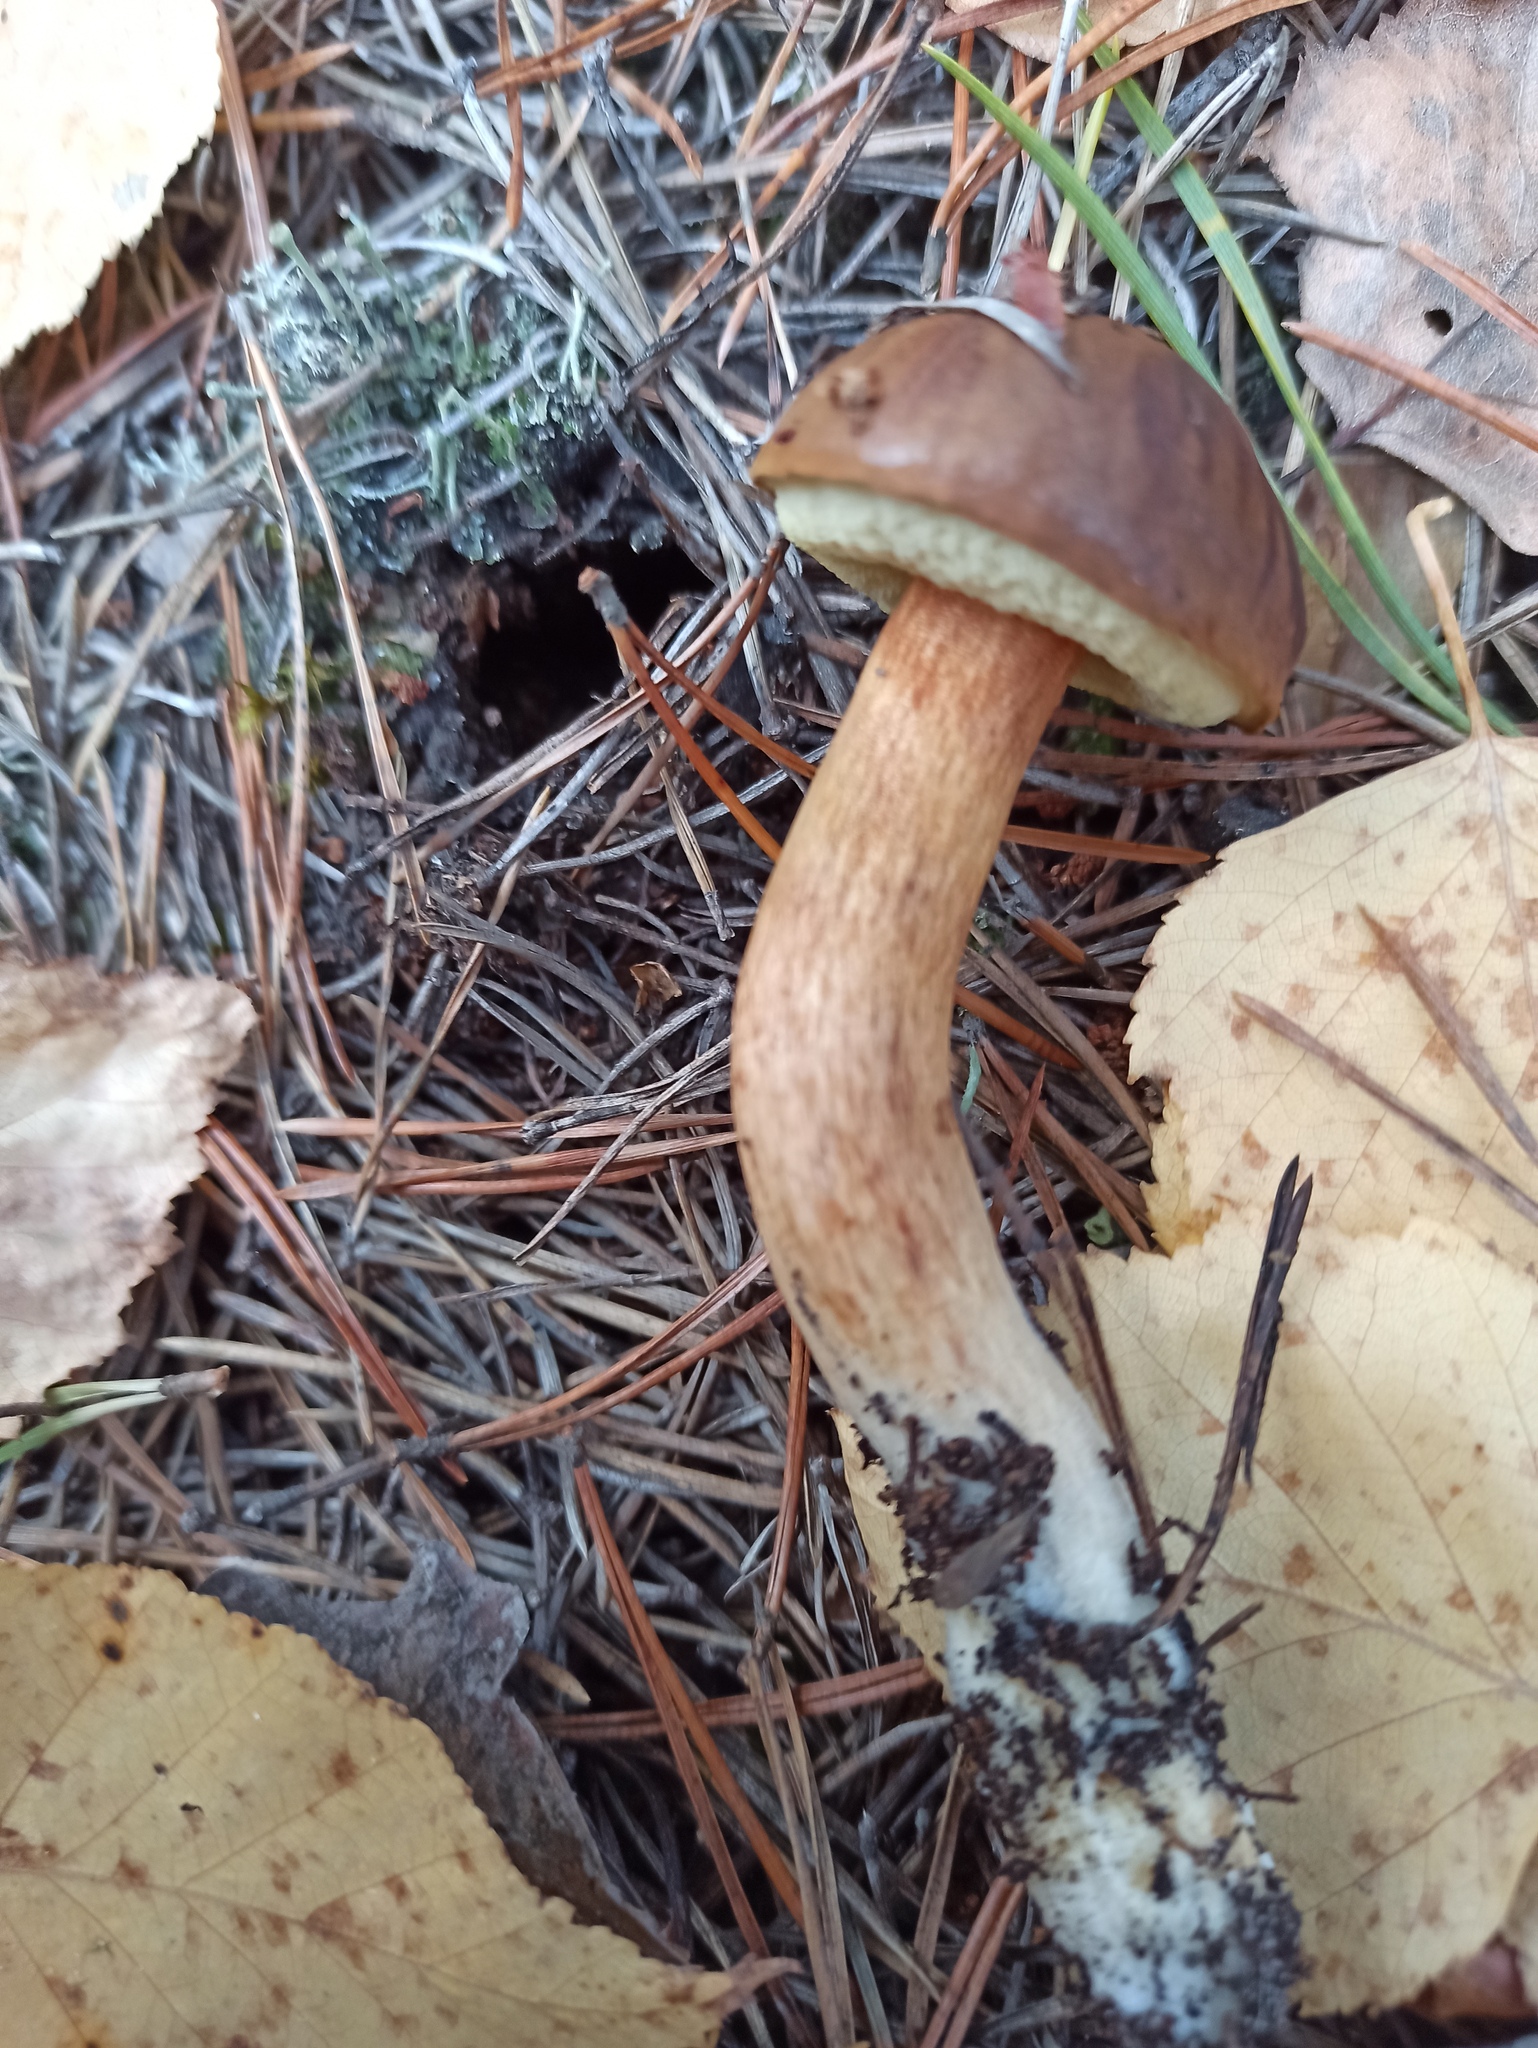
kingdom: Fungi
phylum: Basidiomycota
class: Agaricomycetes
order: Boletales
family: Boletaceae
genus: Imleria
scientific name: Imleria badia
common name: Bay bolete
